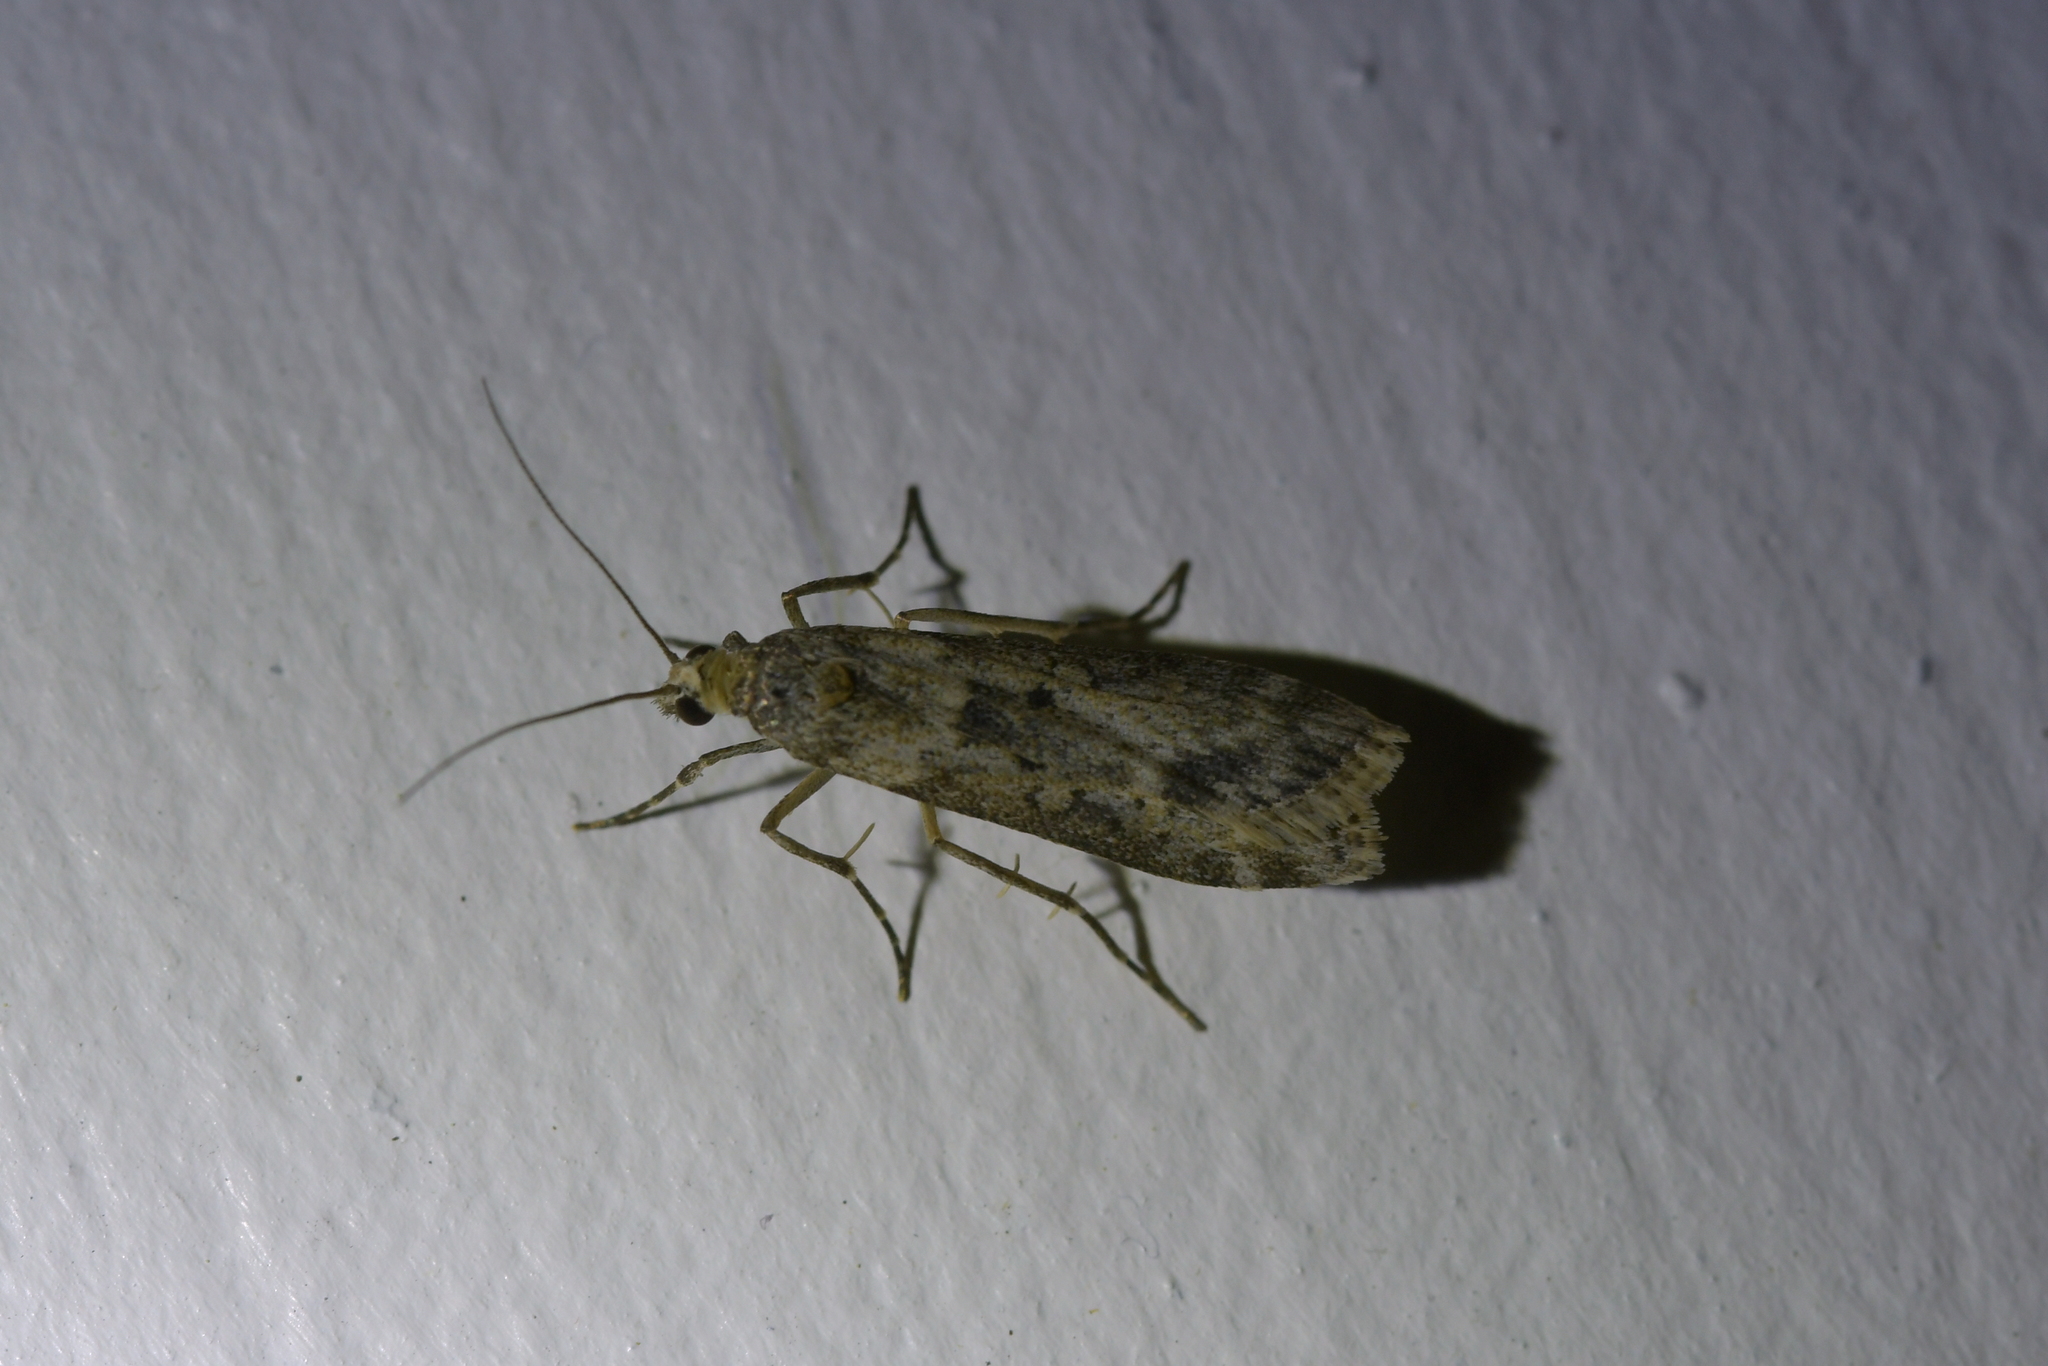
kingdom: Animalia
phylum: Arthropoda
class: Insecta
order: Lepidoptera
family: Crambidae
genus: Eudonia
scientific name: Eudonia leptalea
